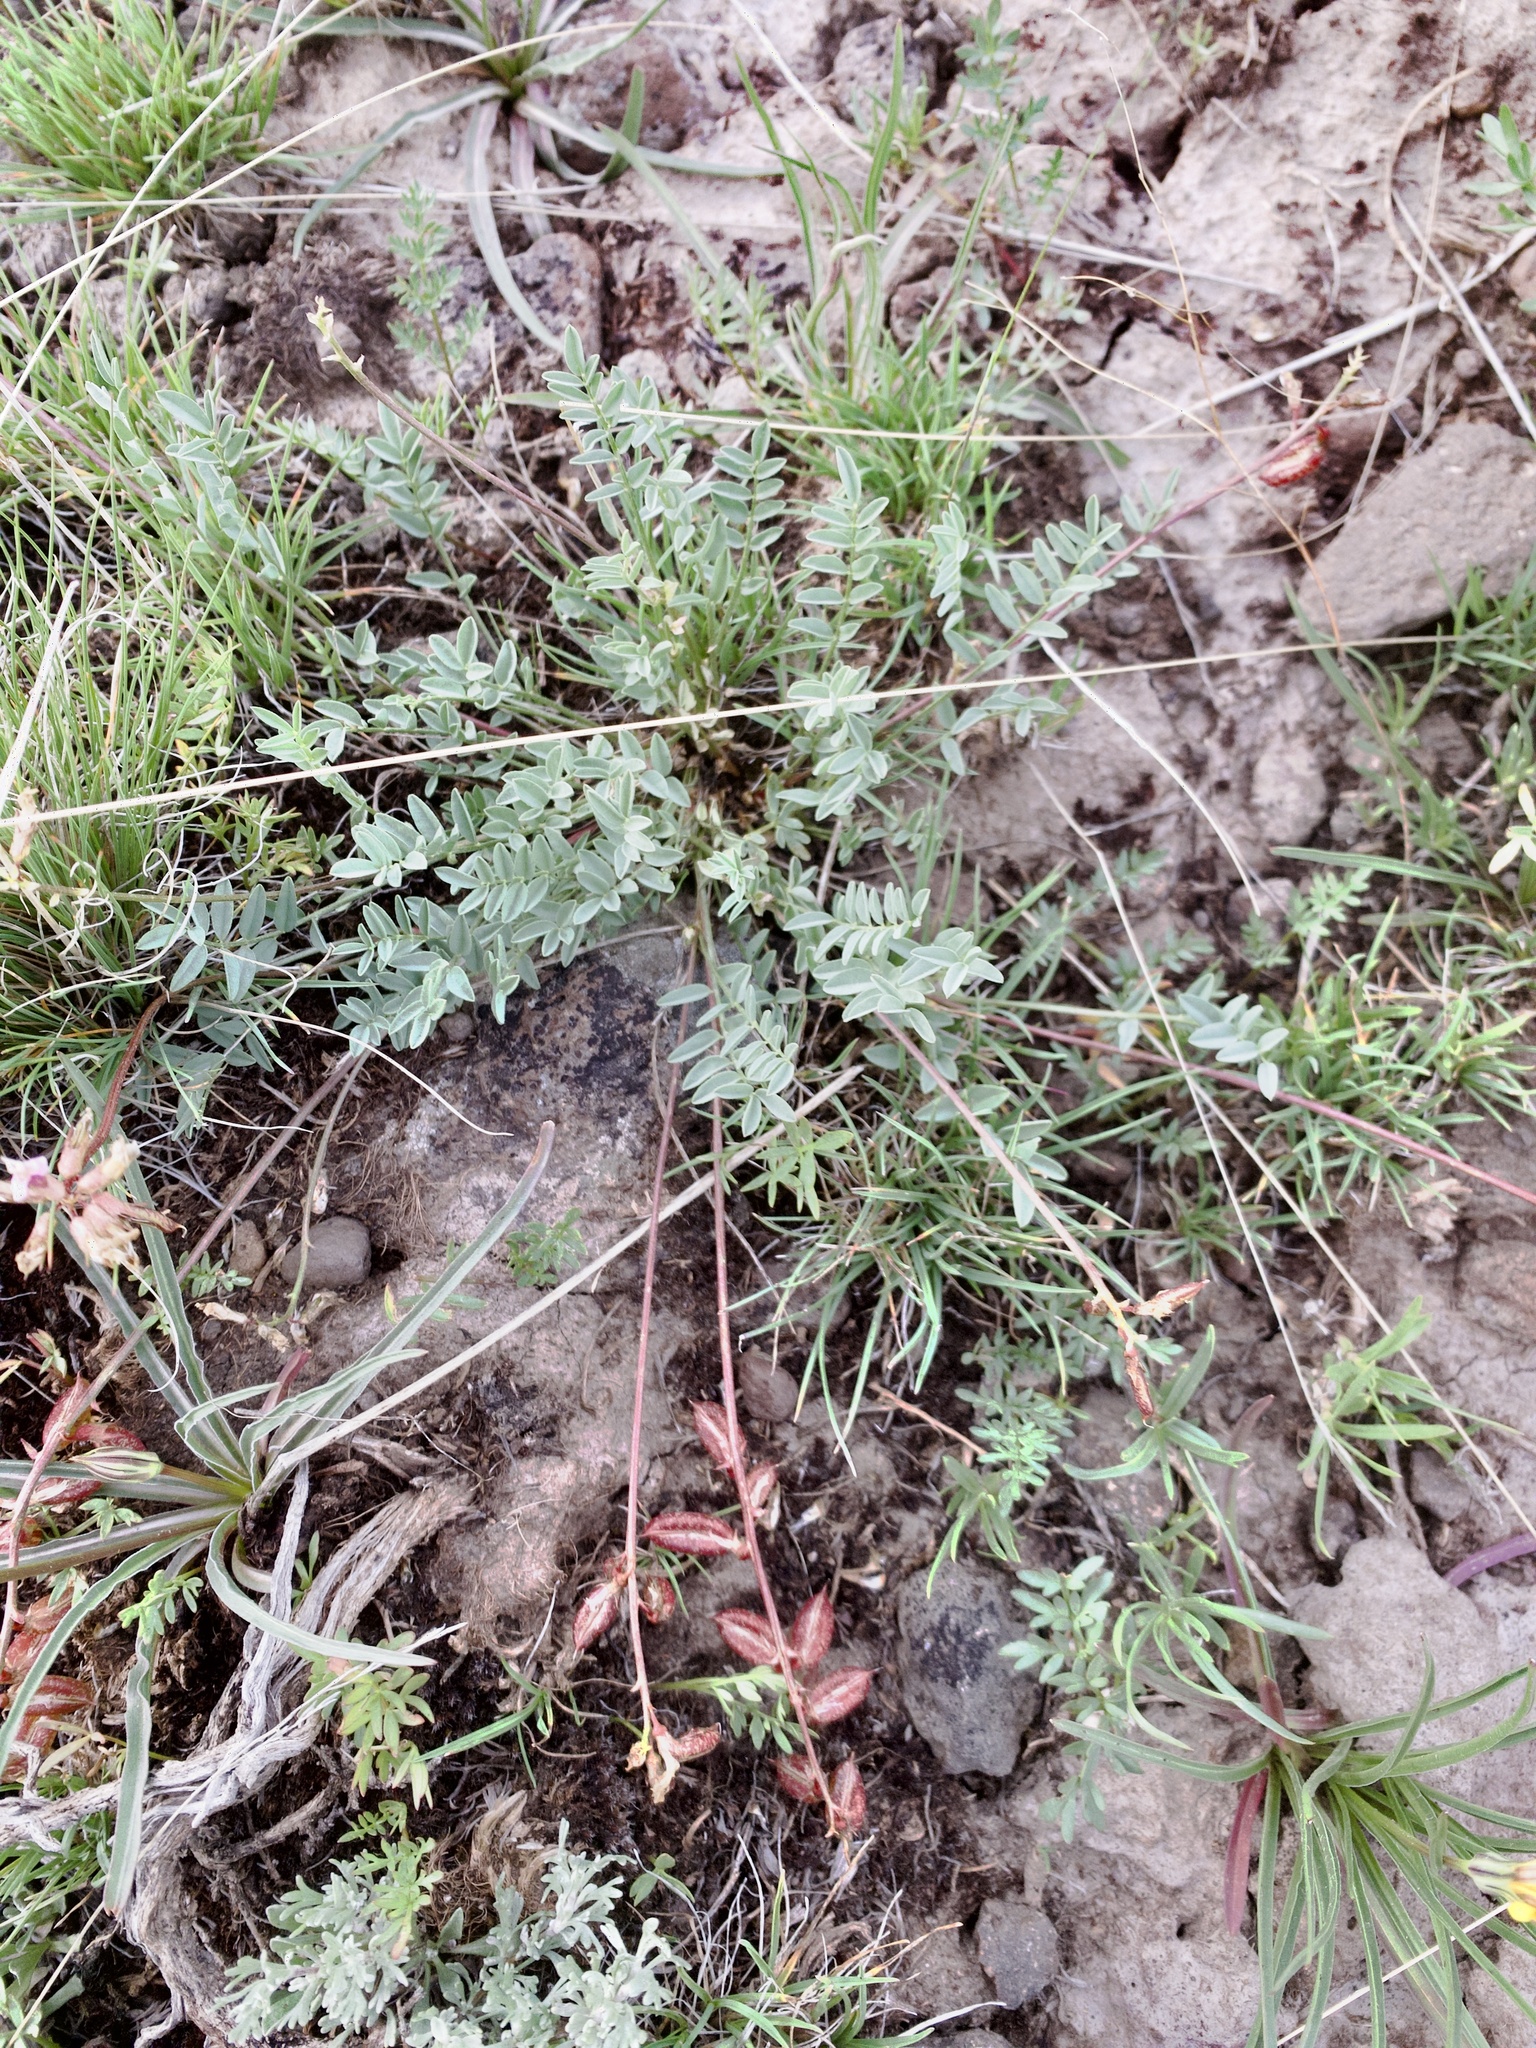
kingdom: Plantae
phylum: Tracheophyta
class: Magnoliopsida
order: Fabales
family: Fabaceae
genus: Astragalus
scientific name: Astragalus salmonis
